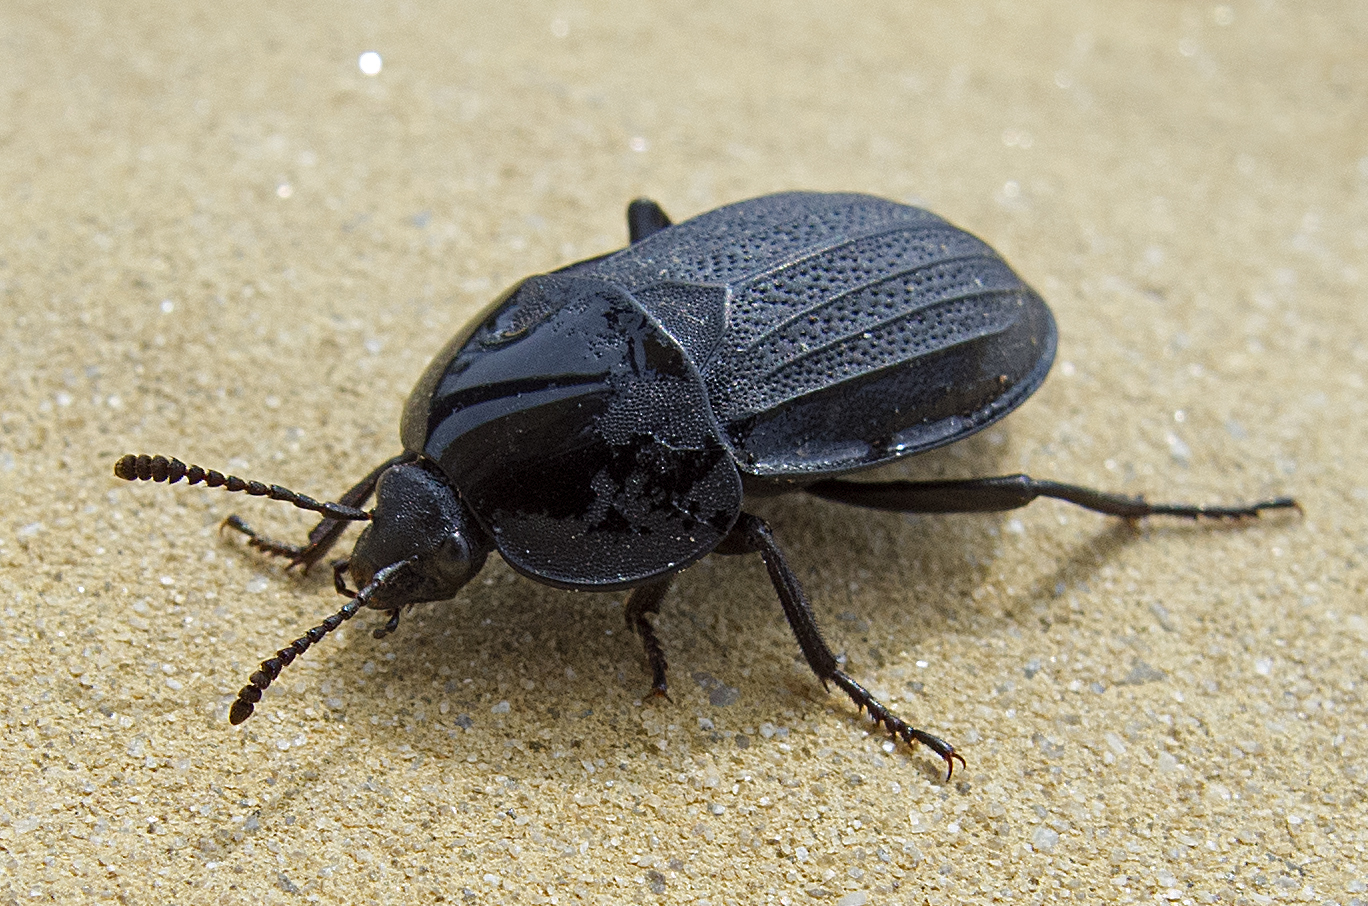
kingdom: Animalia
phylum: Arthropoda
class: Insecta
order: Coleoptera
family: Staphylinidae
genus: Silpha
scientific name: Silpha obscura
